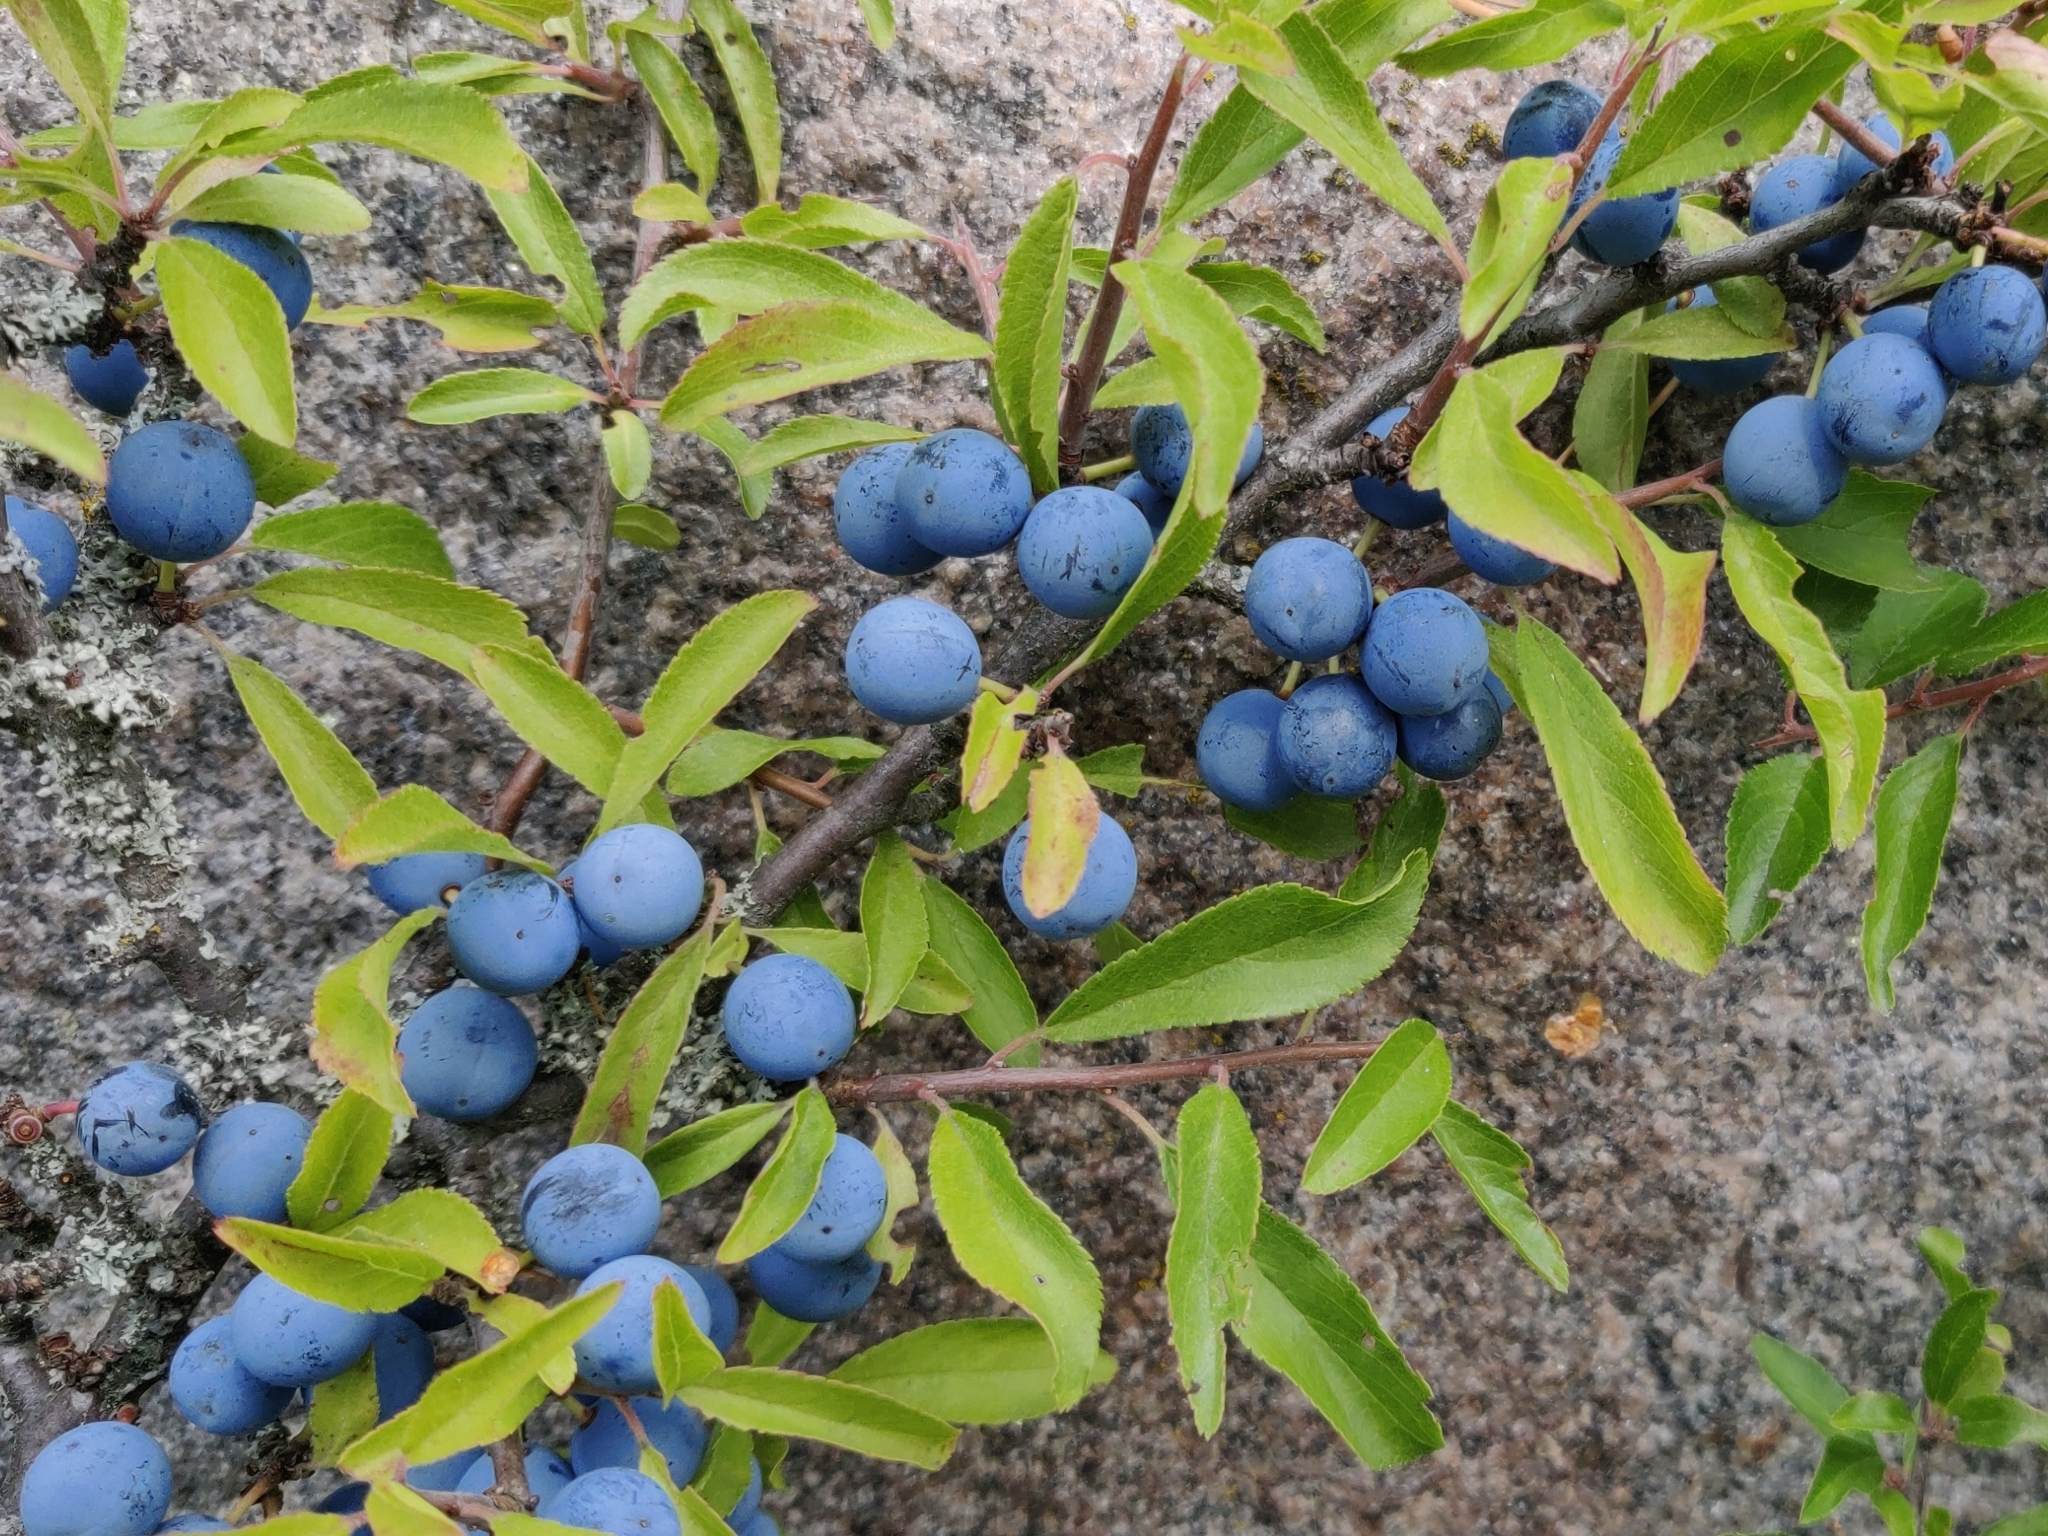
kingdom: Plantae
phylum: Tracheophyta
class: Magnoliopsida
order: Rosales
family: Rosaceae
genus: Prunus
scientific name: Prunus spinosa
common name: Blackthorn
